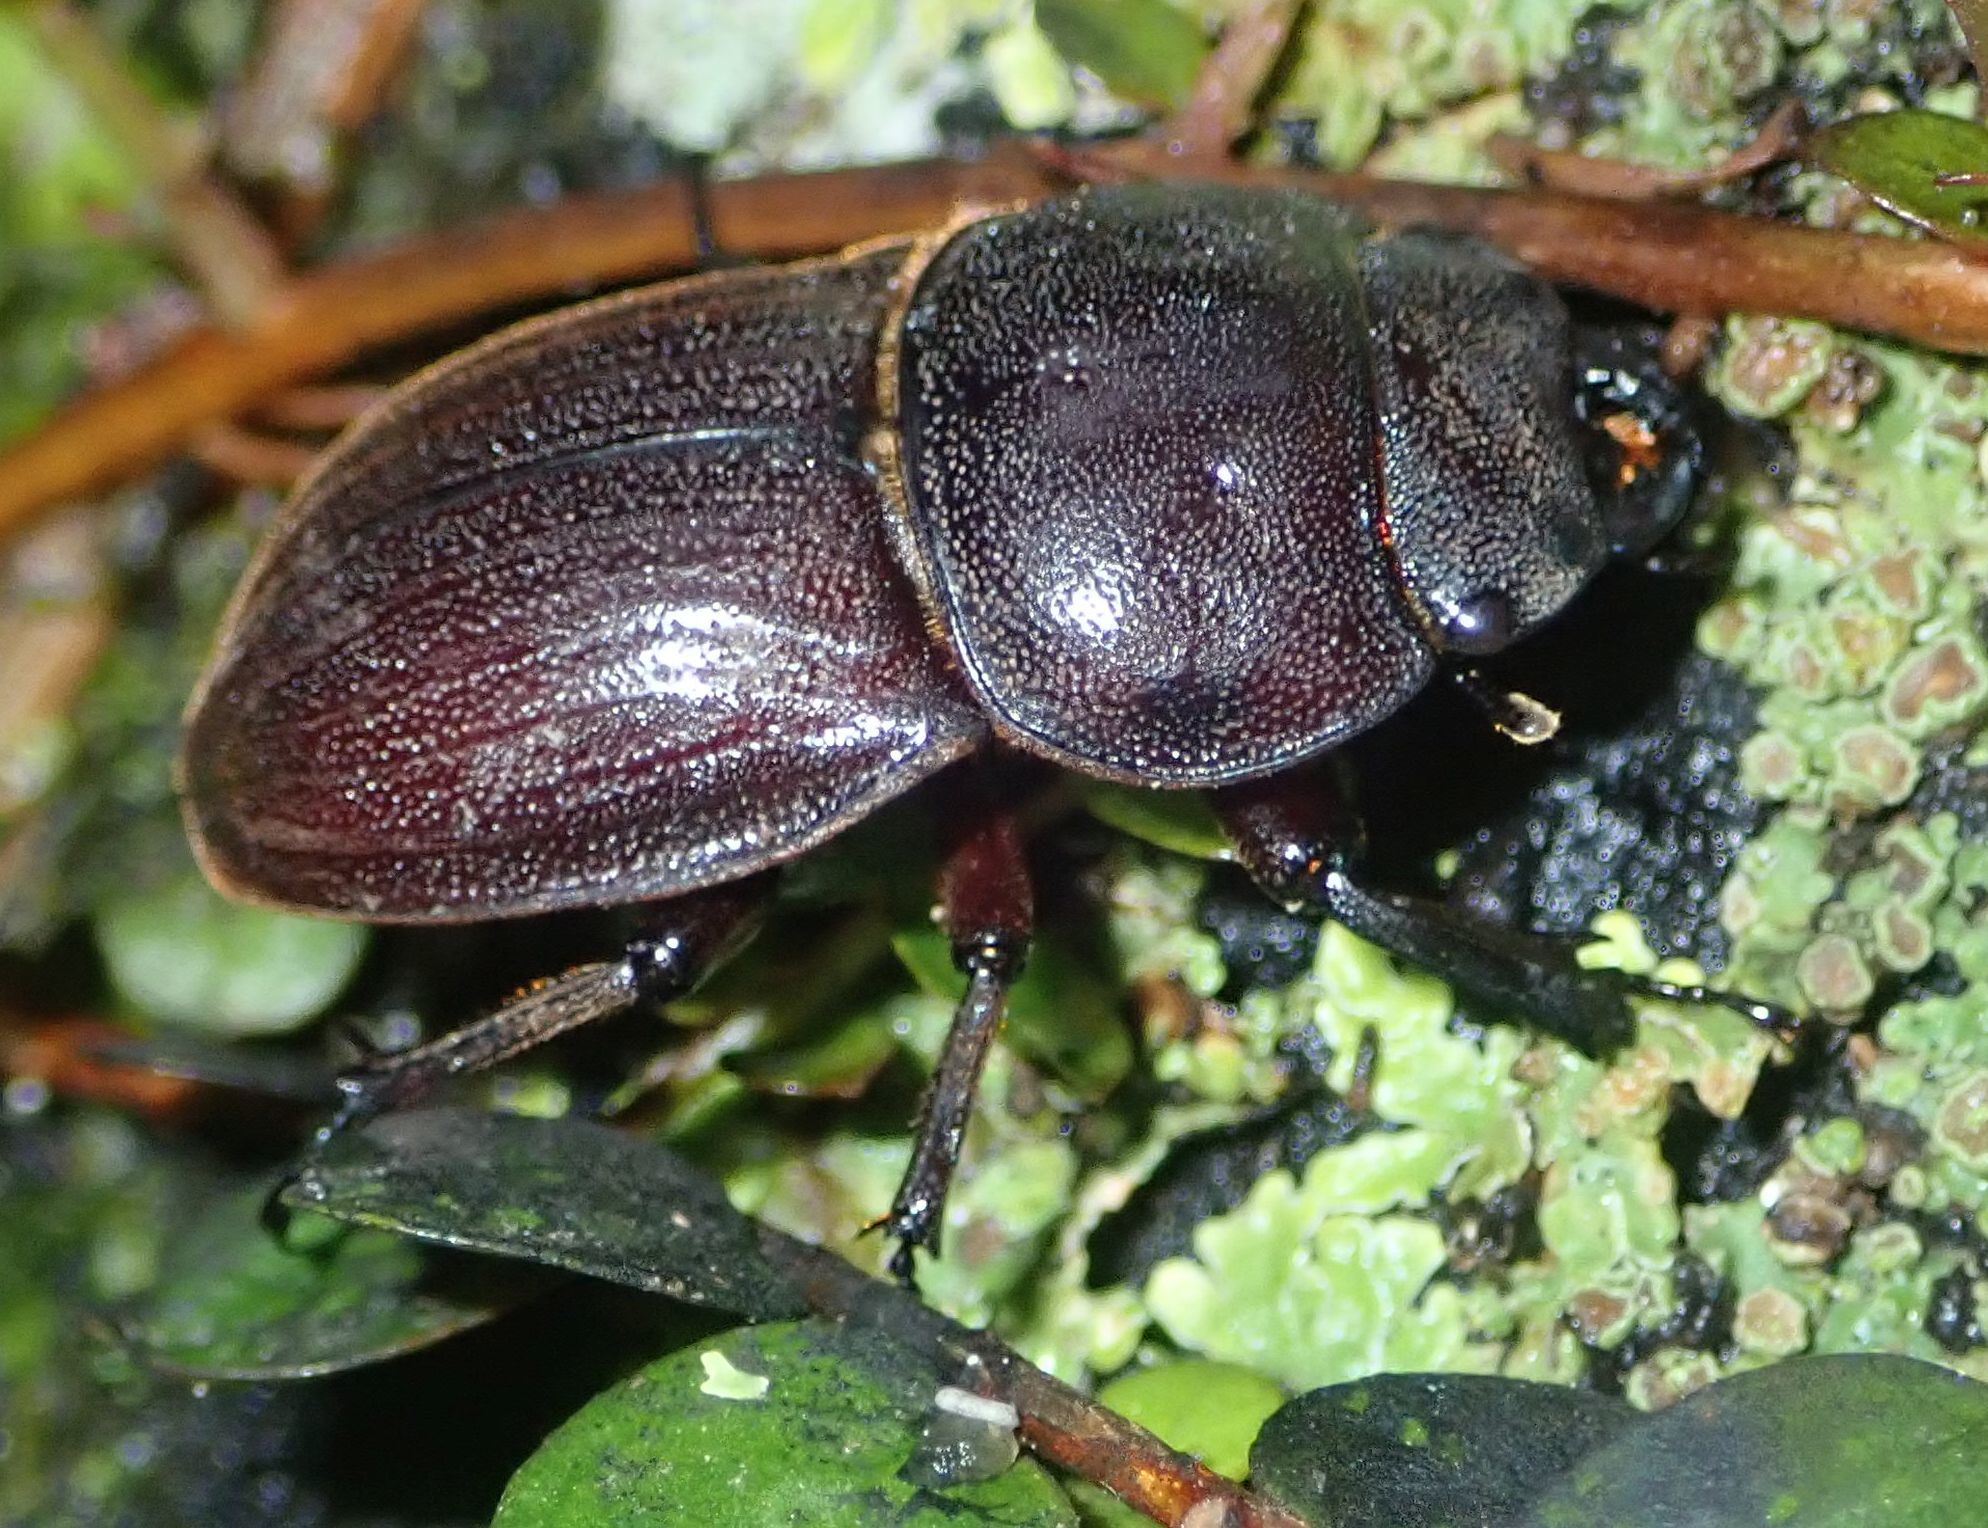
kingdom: Animalia
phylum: Arthropoda
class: Insecta
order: Coleoptera
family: Lucanidae
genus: Geodorcus
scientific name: Geodorcus helmsi
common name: Helm's stag beetle
